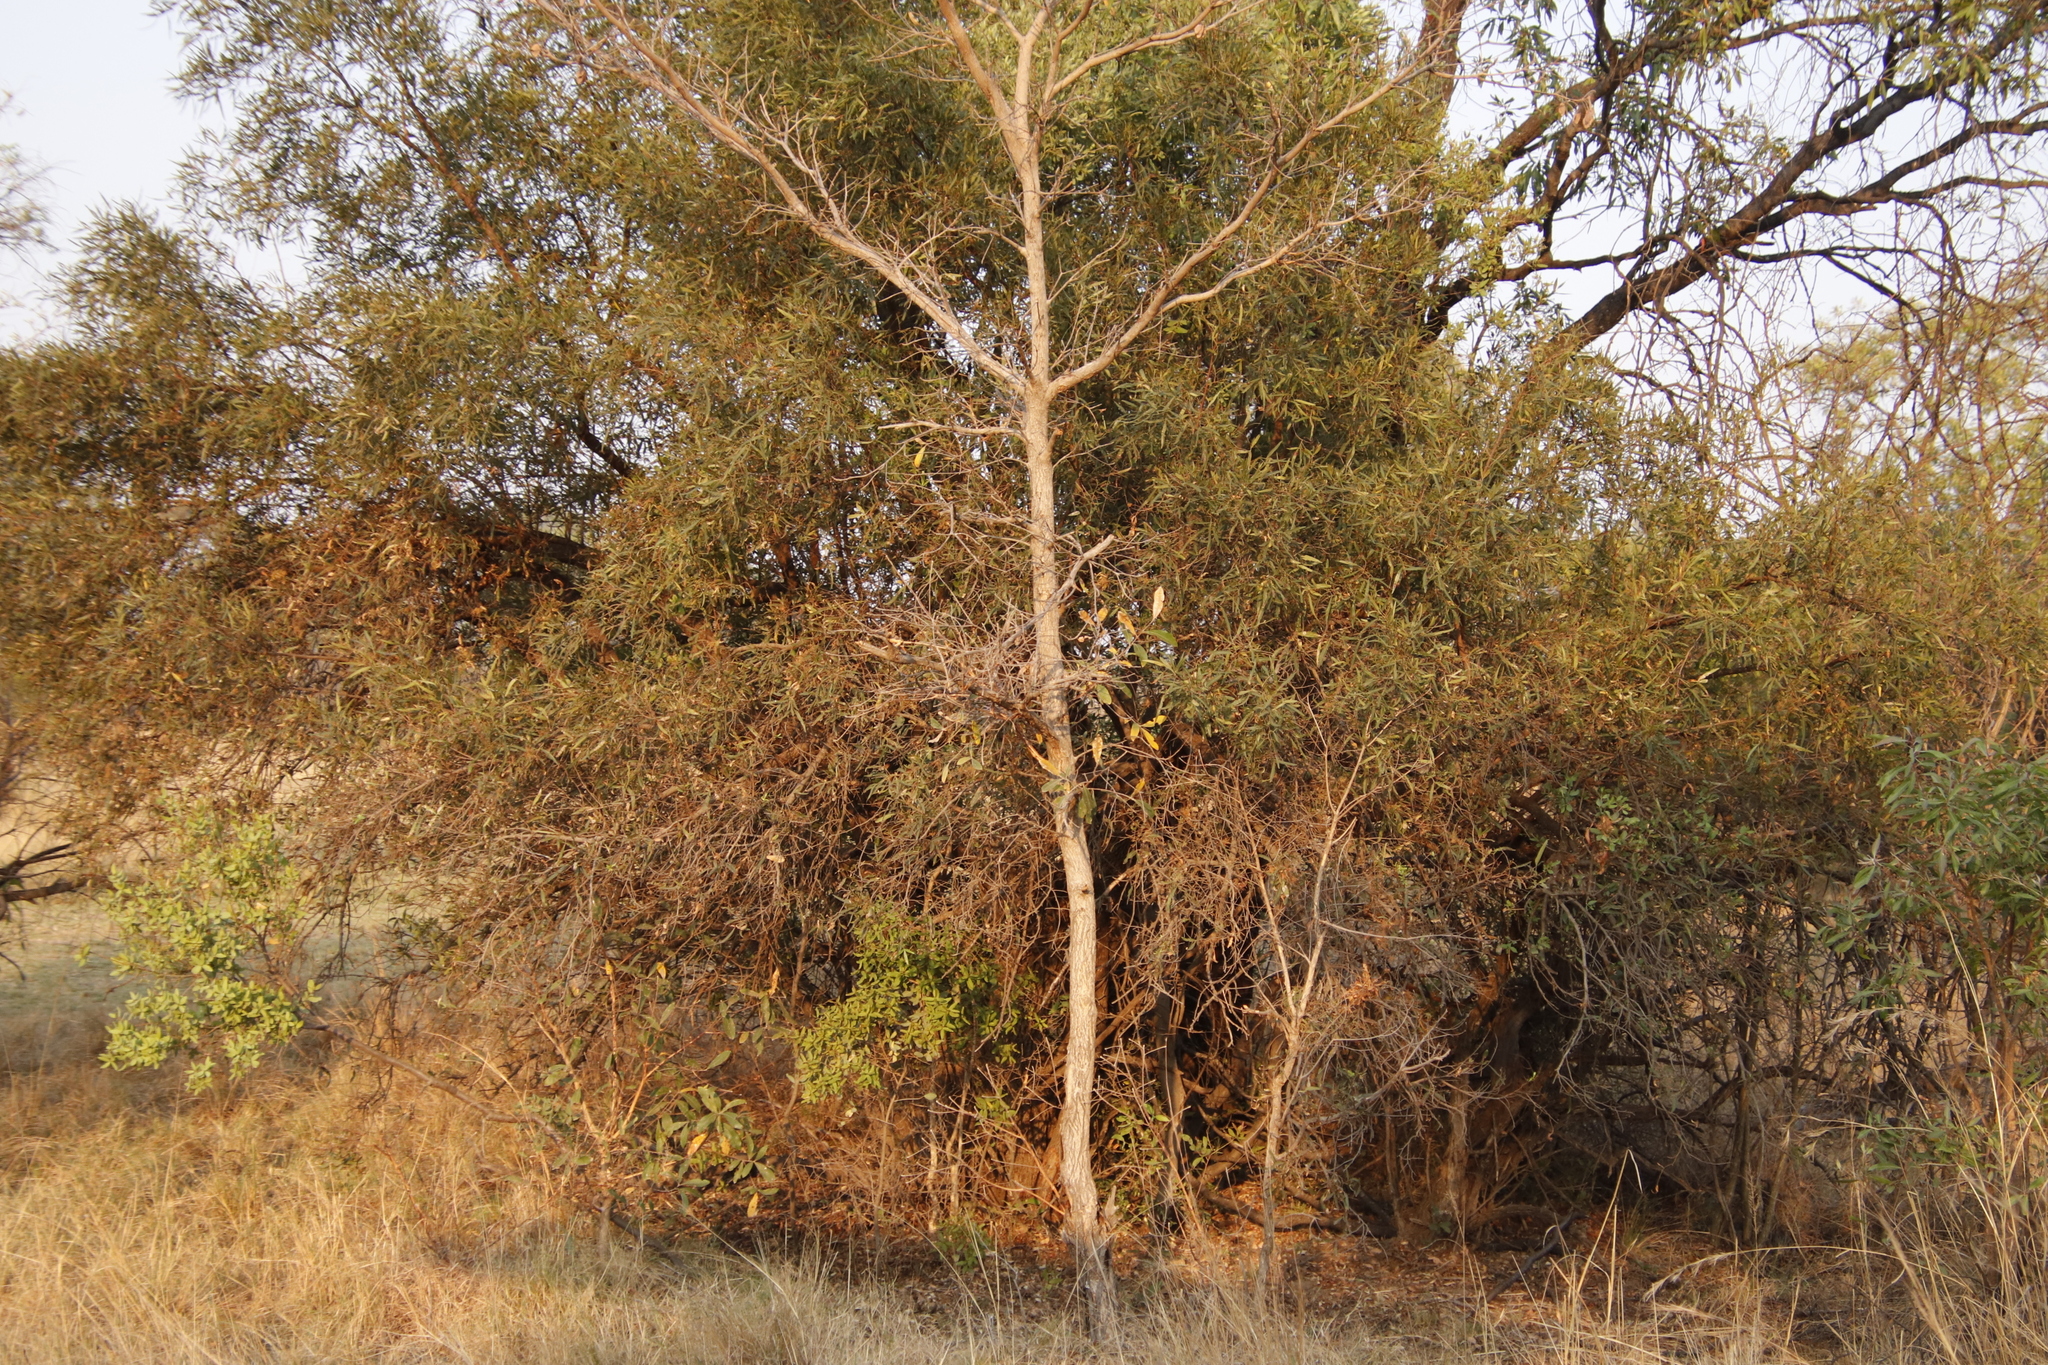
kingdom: Plantae
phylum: Tracheophyta
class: Magnoliopsida
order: Sapindales
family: Anacardiaceae
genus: Searsia
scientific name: Searsia lancea
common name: Cashew
